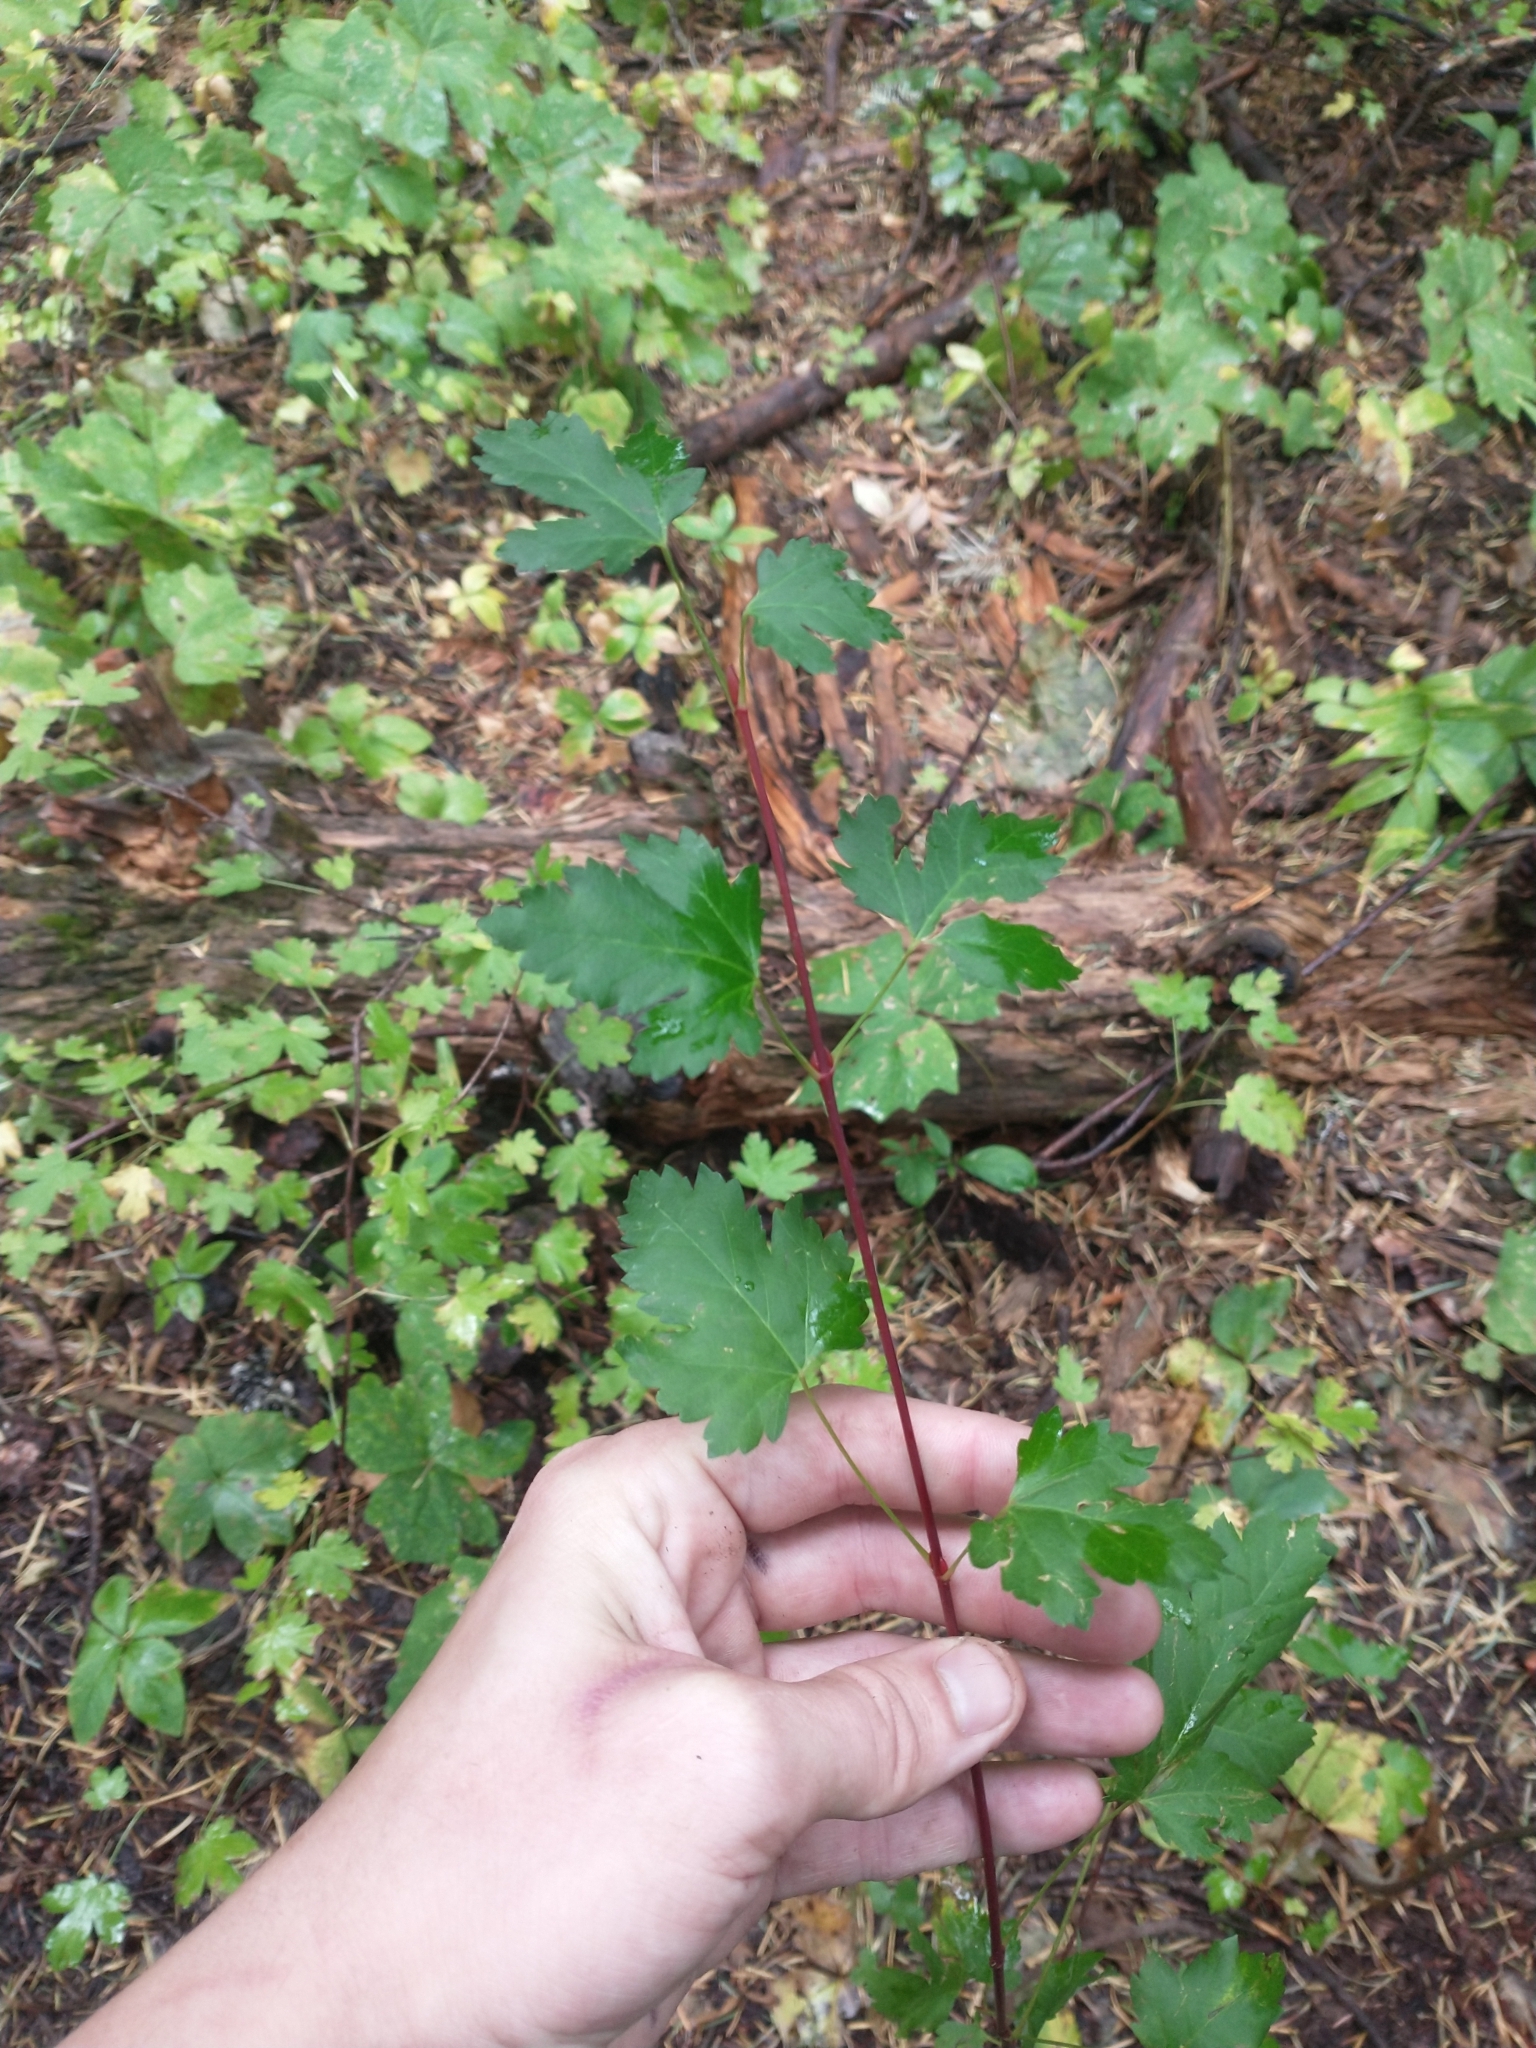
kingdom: Plantae
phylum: Tracheophyta
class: Magnoliopsida
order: Sapindales
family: Sapindaceae
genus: Acer
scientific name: Acer glabrum
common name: Rocky mountain maple
